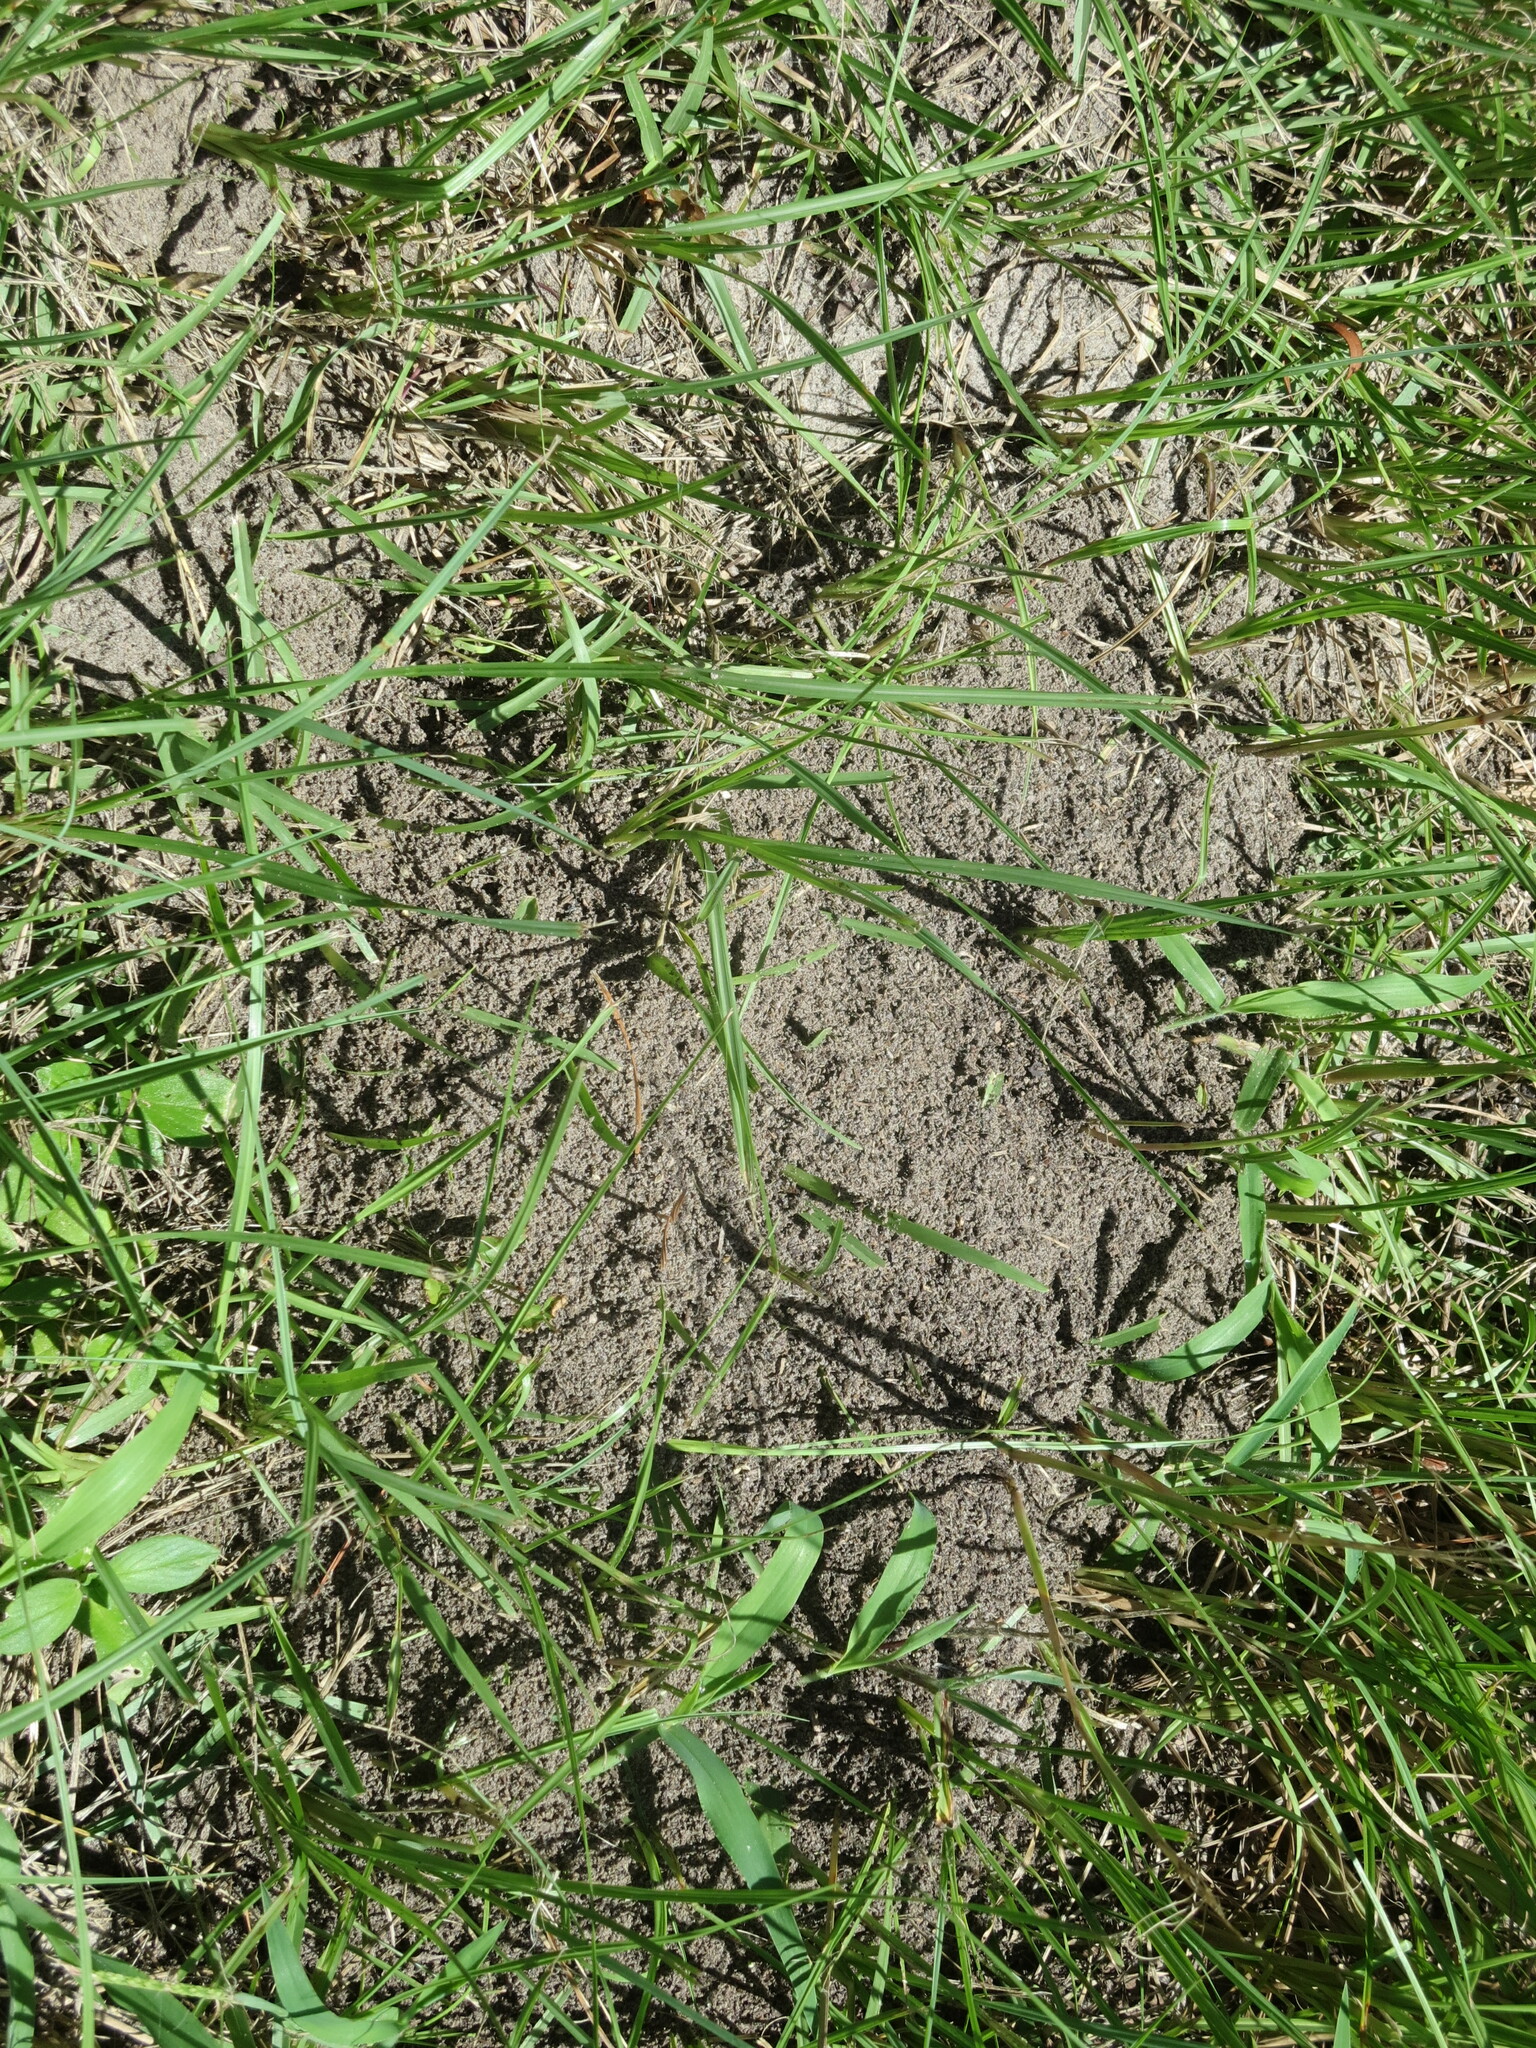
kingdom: Animalia
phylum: Arthropoda
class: Insecta
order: Hymenoptera
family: Formicidae
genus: Solenopsis
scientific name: Solenopsis invicta
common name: Red imported fire ant
